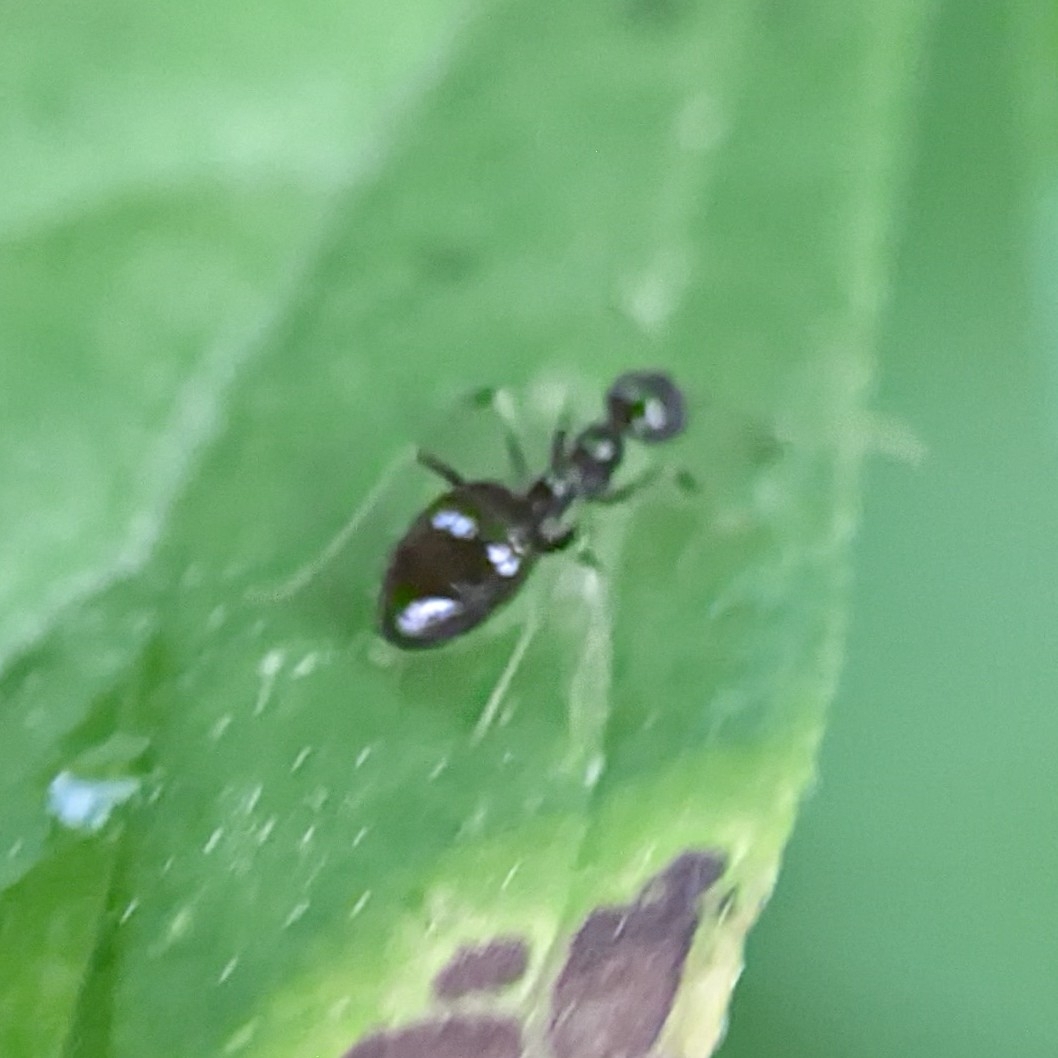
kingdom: Animalia
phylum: Arthropoda
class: Insecta
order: Hymenoptera
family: Formicidae
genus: Prenolepis
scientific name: Prenolepis imparis
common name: Small honey ant
